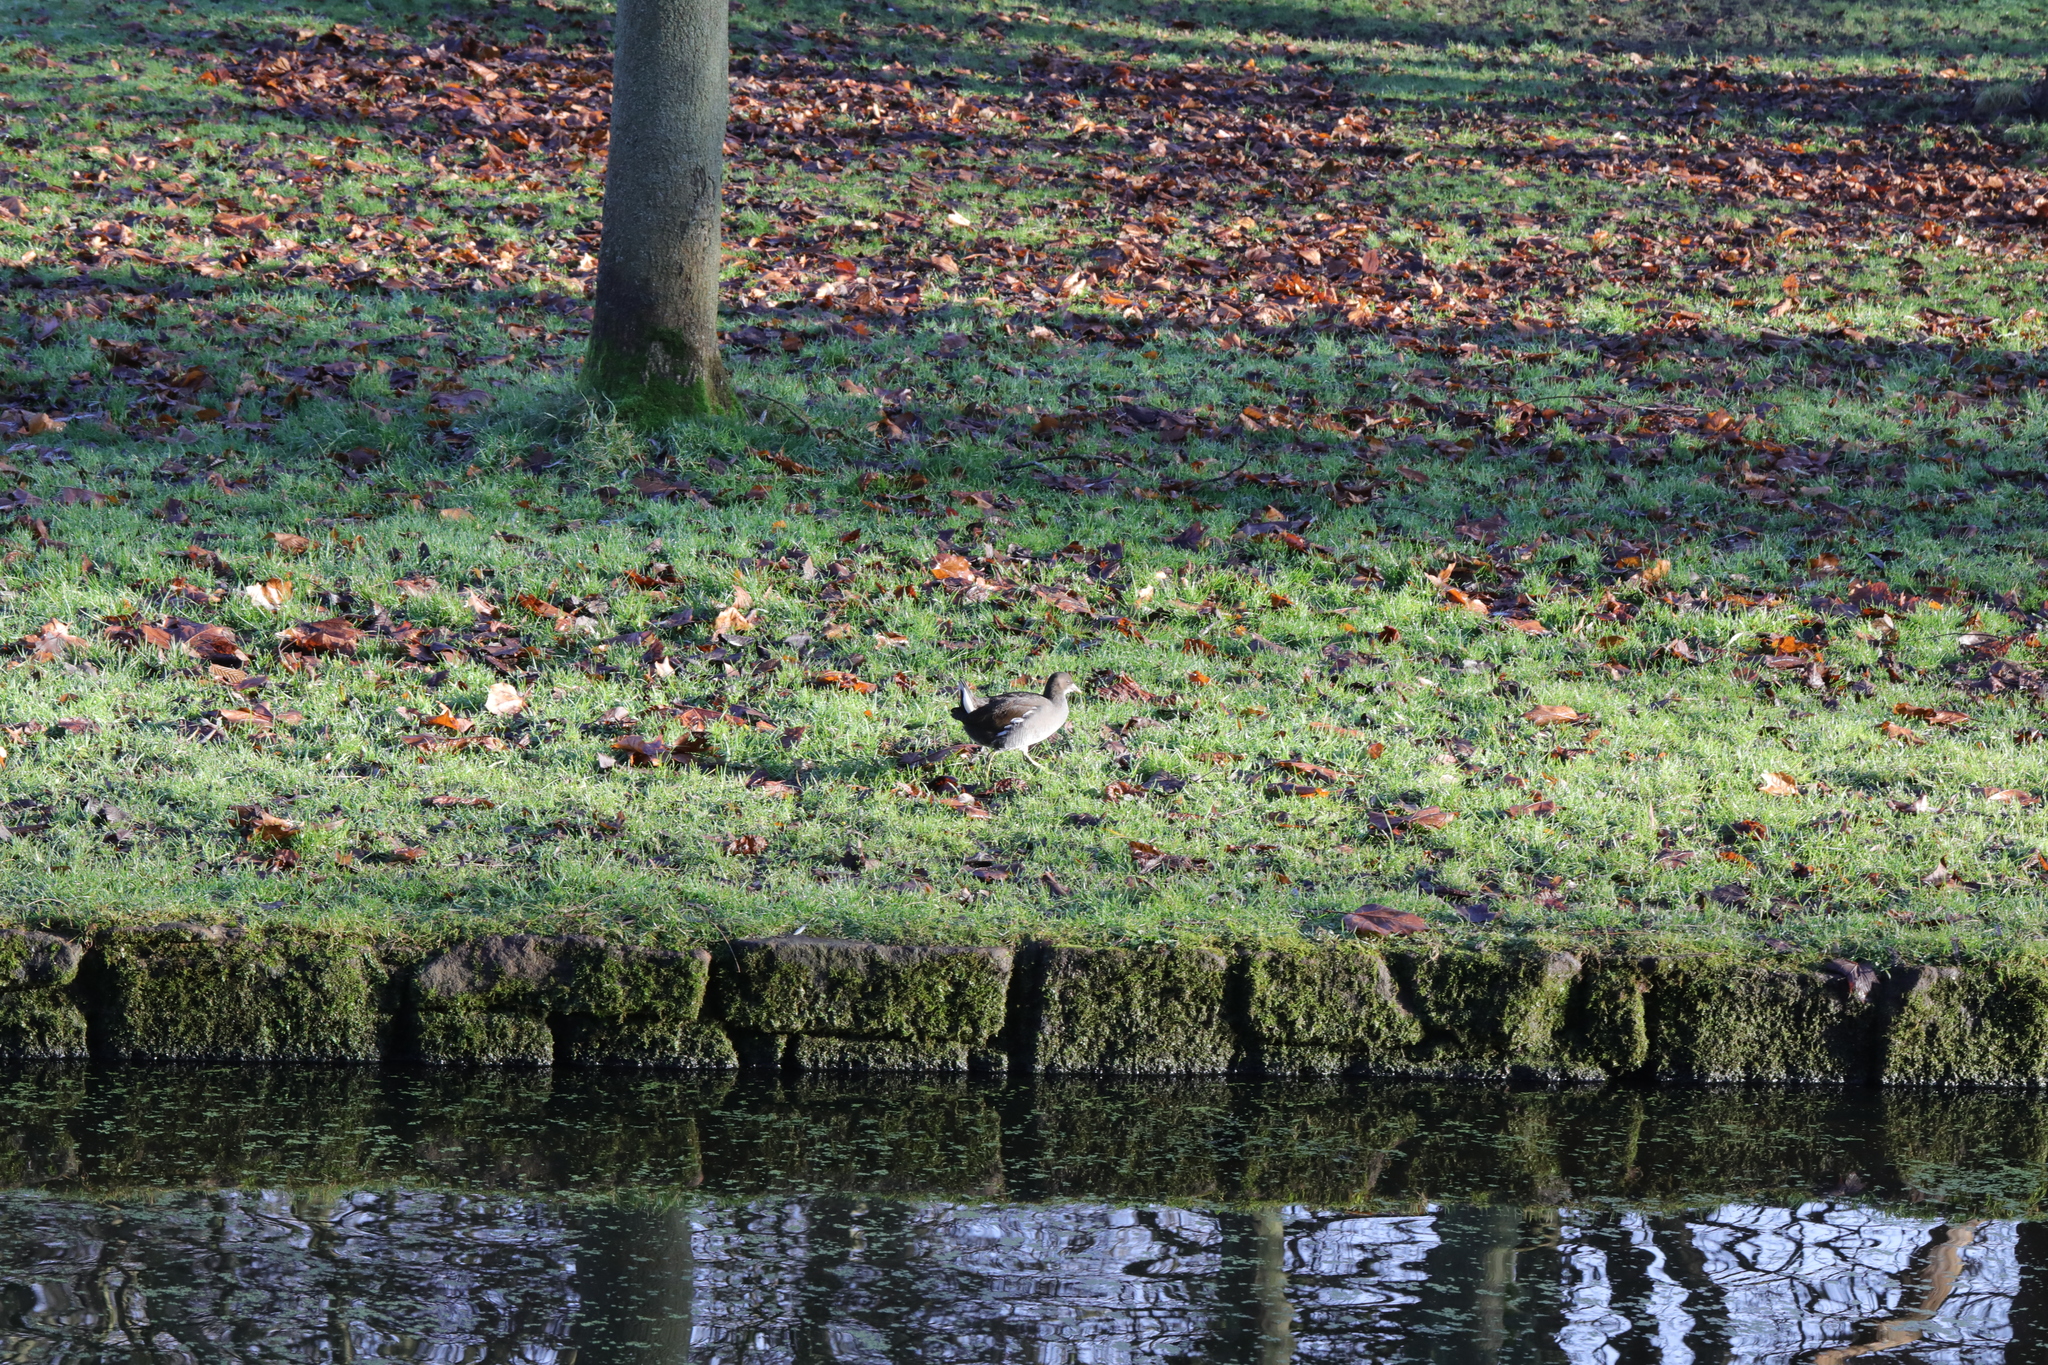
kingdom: Animalia
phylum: Chordata
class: Aves
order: Gruiformes
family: Rallidae
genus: Gallinula
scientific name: Gallinula chloropus
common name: Common moorhen
